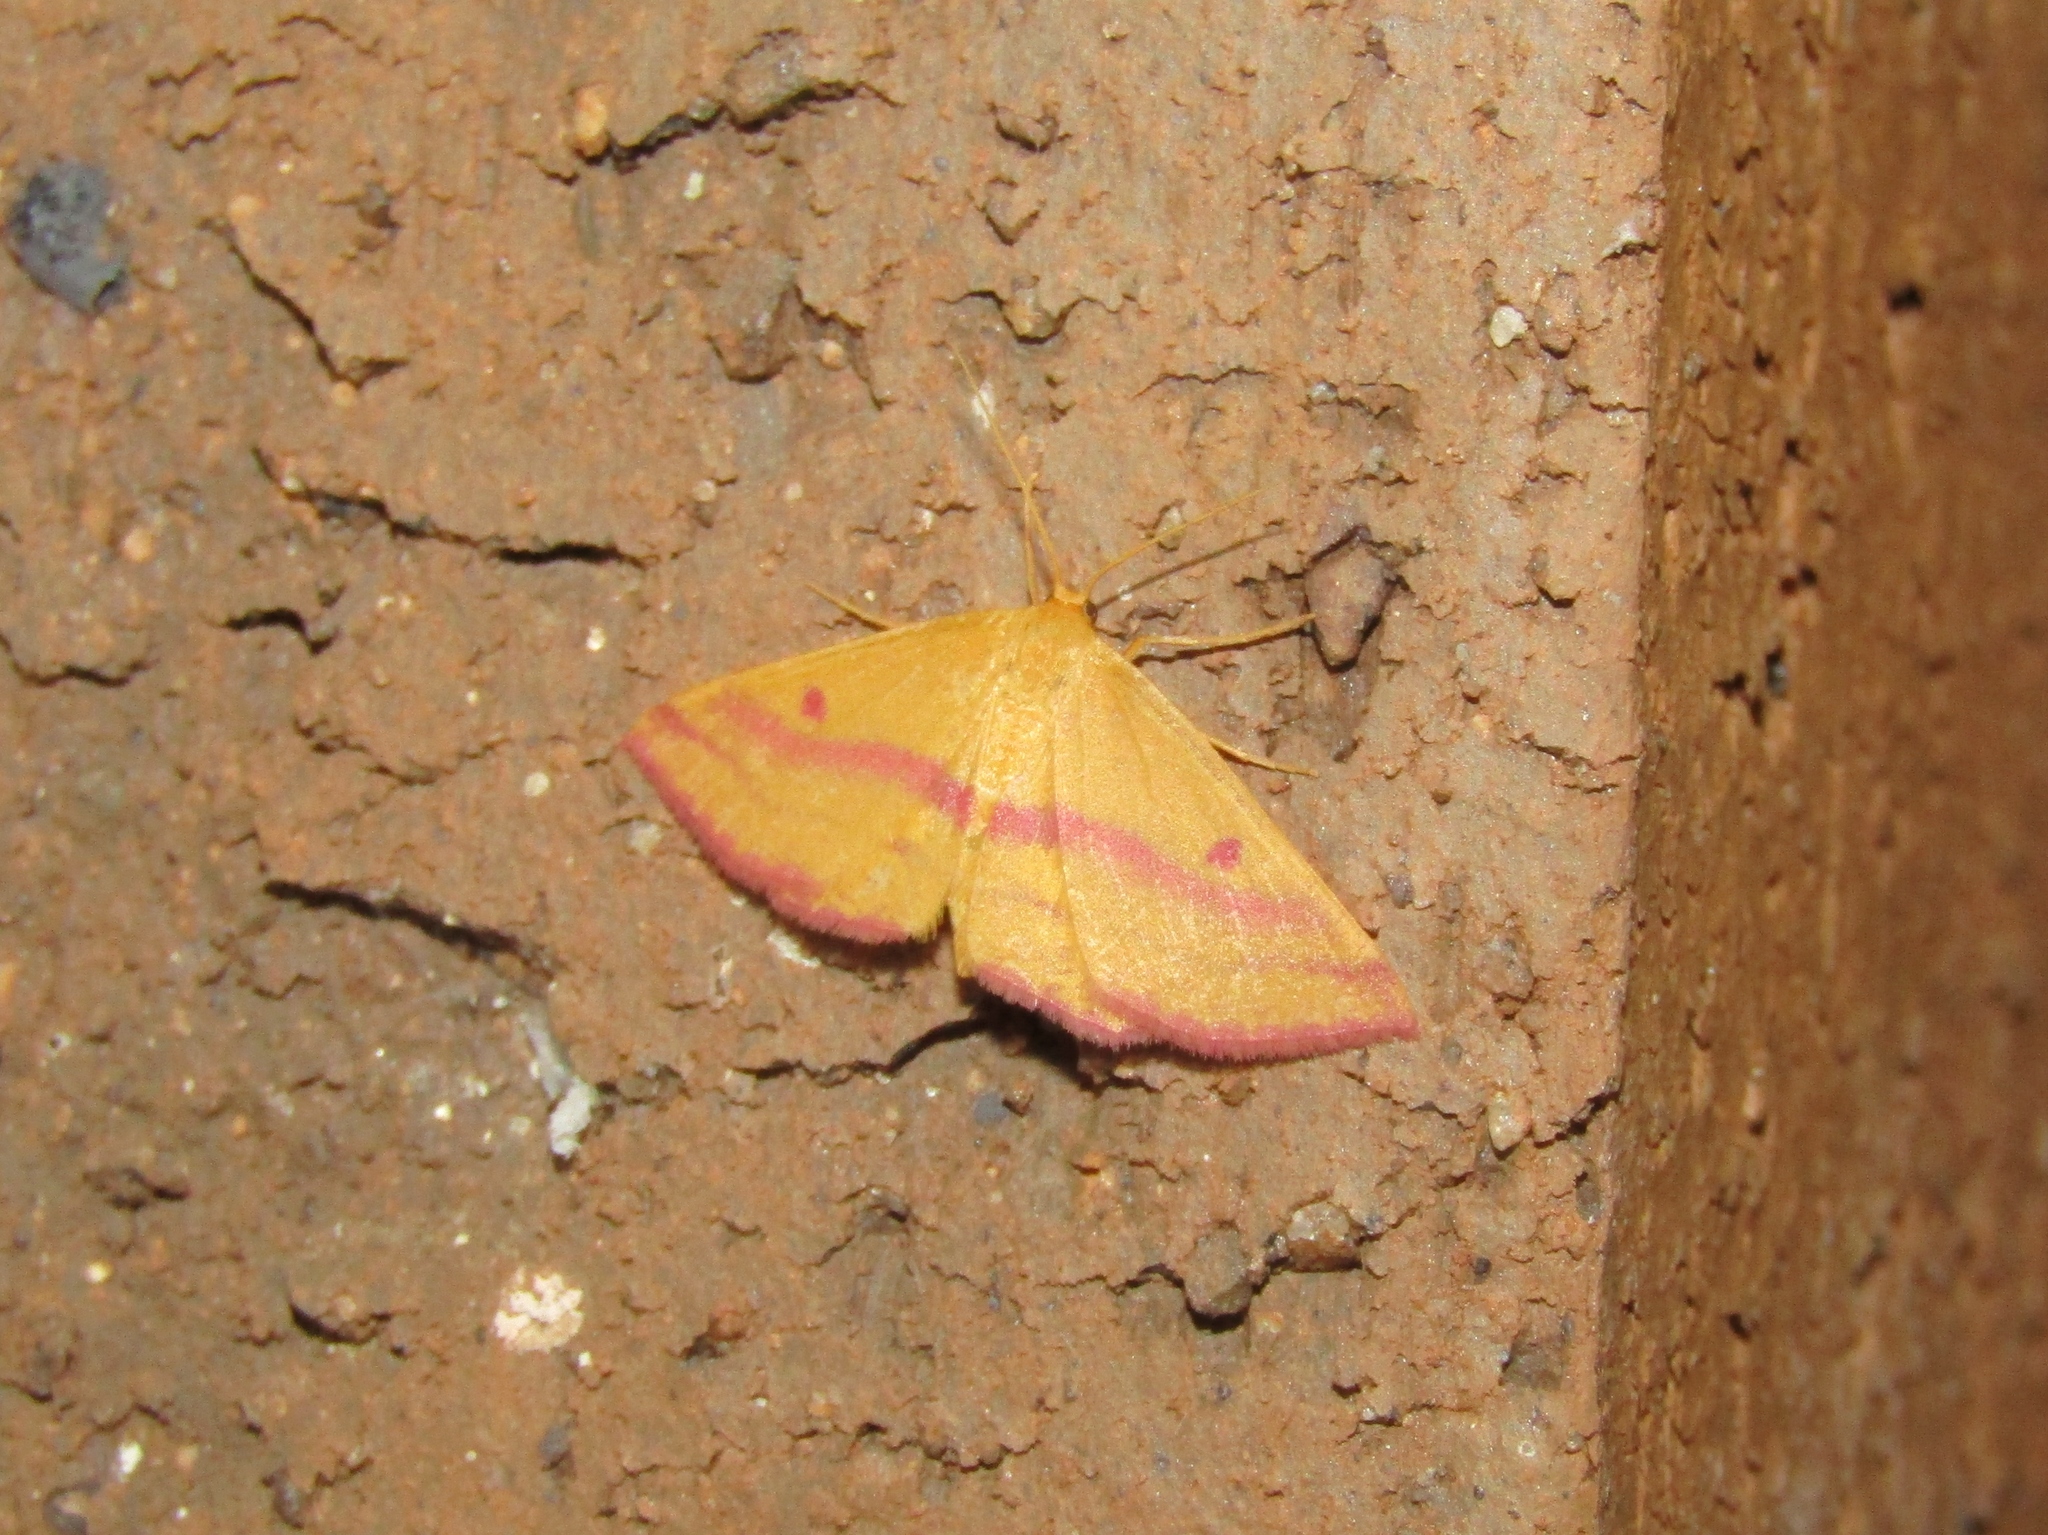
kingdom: Animalia
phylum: Arthropoda
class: Insecta
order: Lepidoptera
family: Geometridae
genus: Haematopis
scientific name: Haematopis grataria
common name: Chickweed geometer
